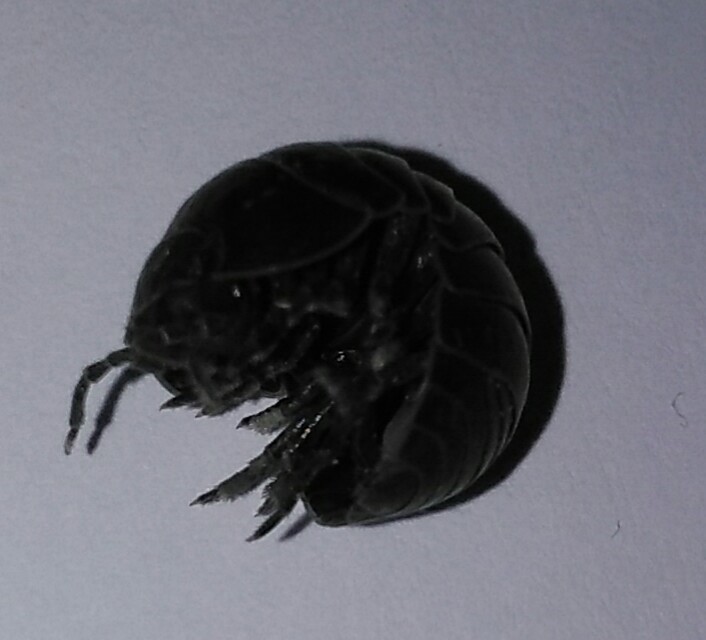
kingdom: Animalia
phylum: Arthropoda
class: Malacostraca
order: Isopoda
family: Armadillidiidae
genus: Armadillidium
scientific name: Armadillidium vulgare
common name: Common pill woodlouse
